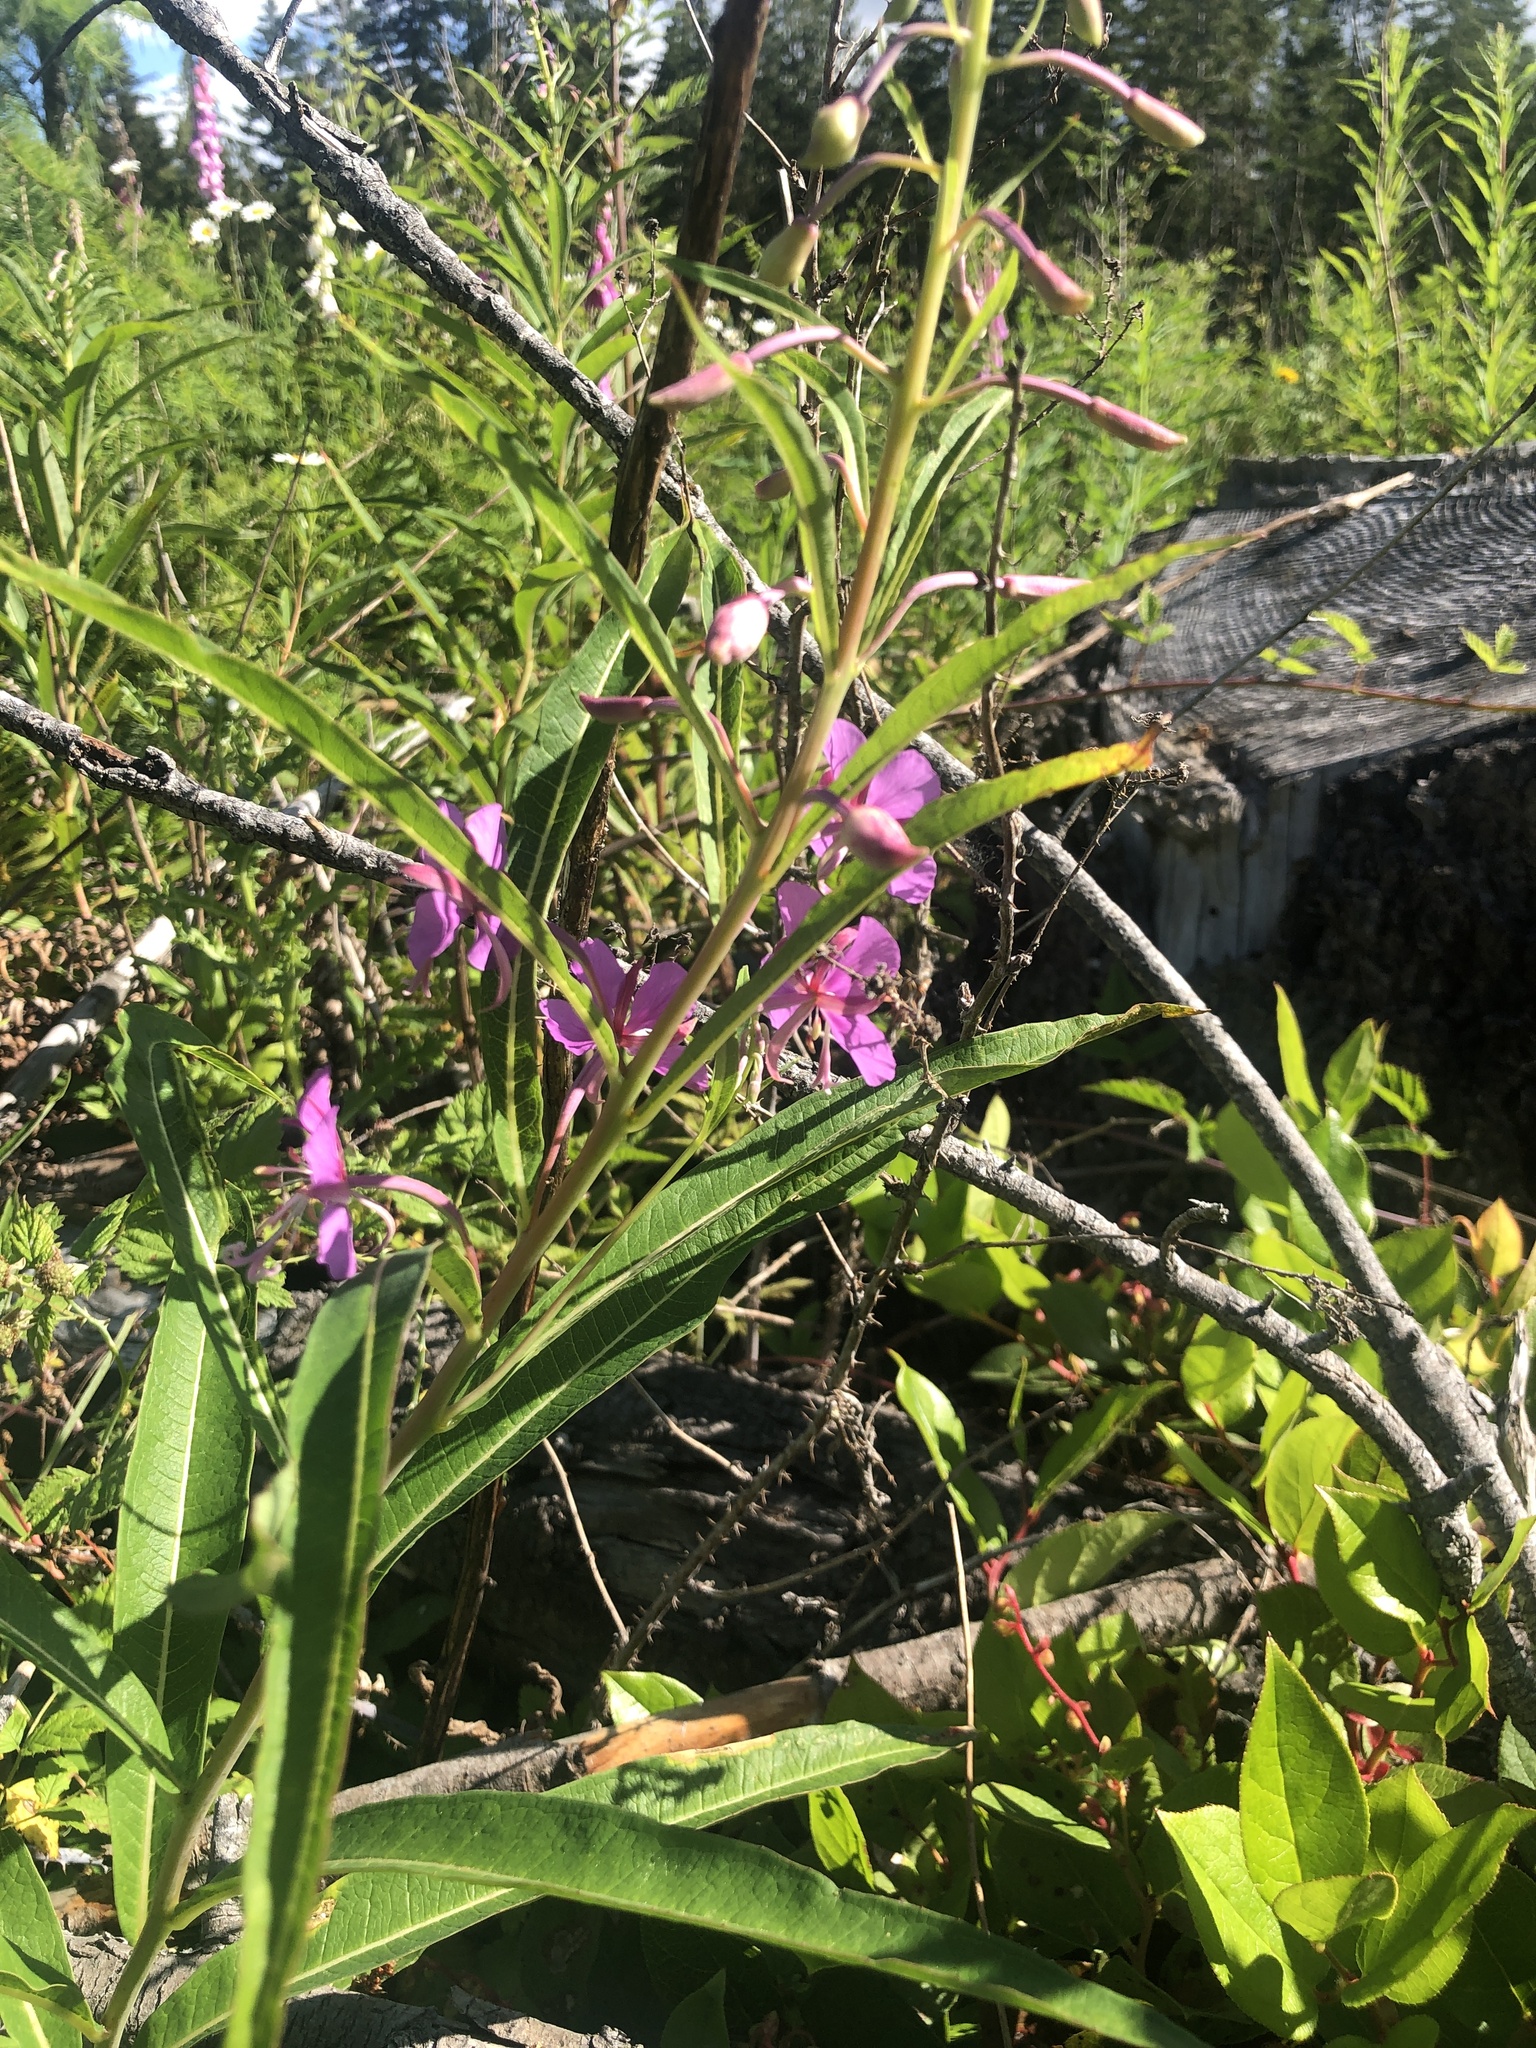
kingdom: Plantae
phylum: Tracheophyta
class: Magnoliopsida
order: Myrtales
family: Onagraceae
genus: Chamaenerion
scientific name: Chamaenerion angustifolium
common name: Fireweed
